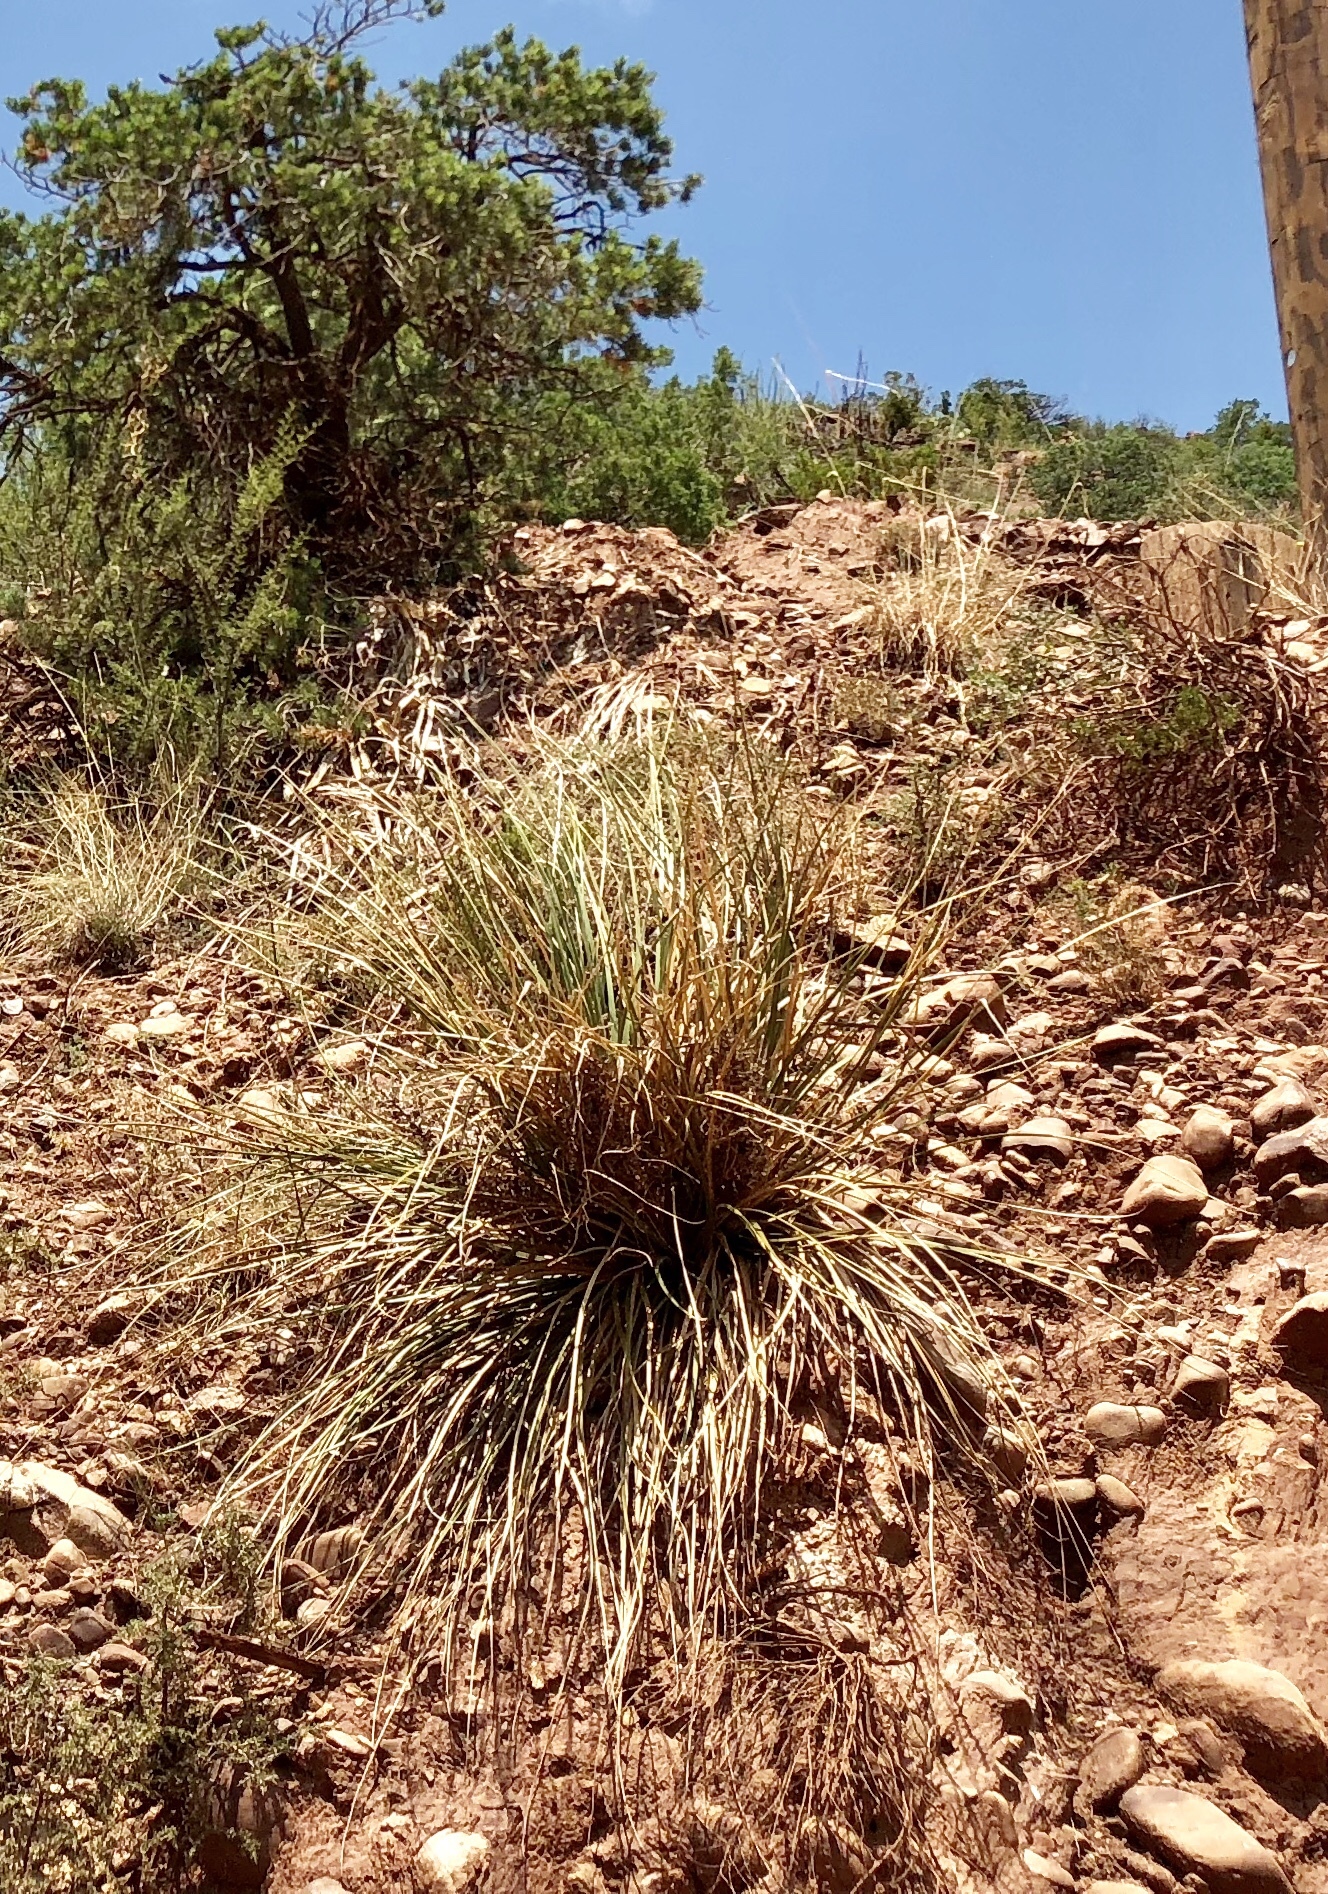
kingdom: Plantae
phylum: Tracheophyta
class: Liliopsida
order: Asparagales
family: Asparagaceae
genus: Nolina
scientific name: Nolina microcarpa
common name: Bear-grass
